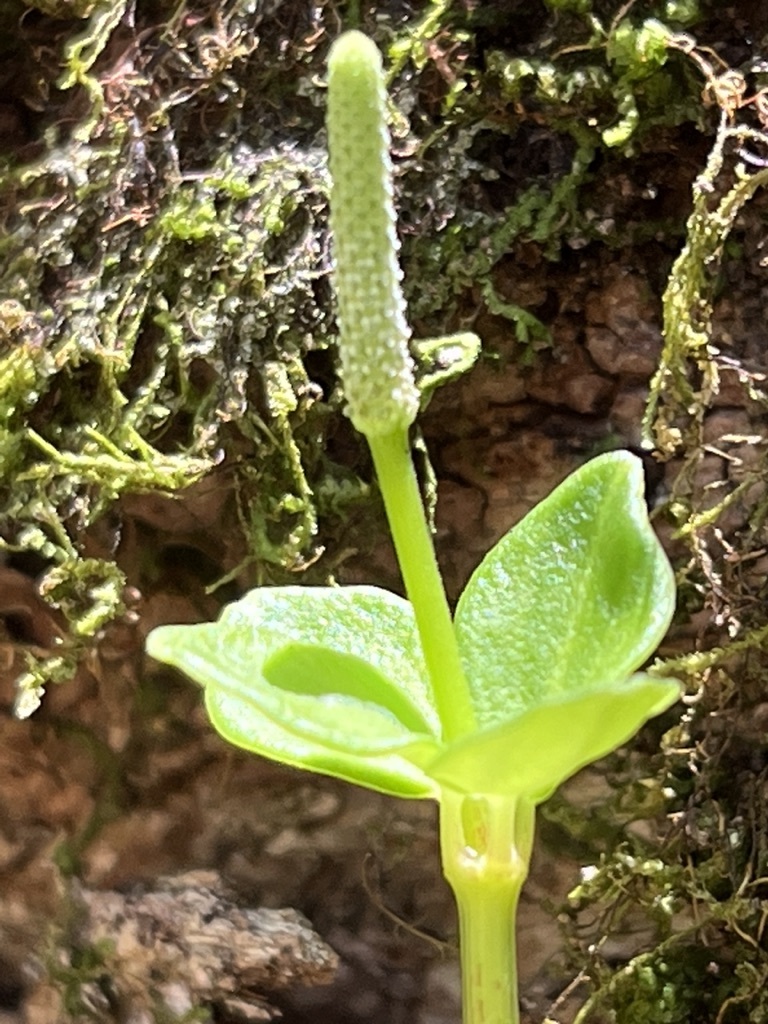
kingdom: Plantae
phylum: Tracheophyta
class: Magnoliopsida
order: Piperales
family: Piperaceae
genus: Peperomia
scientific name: Peperomia tetraphylla
